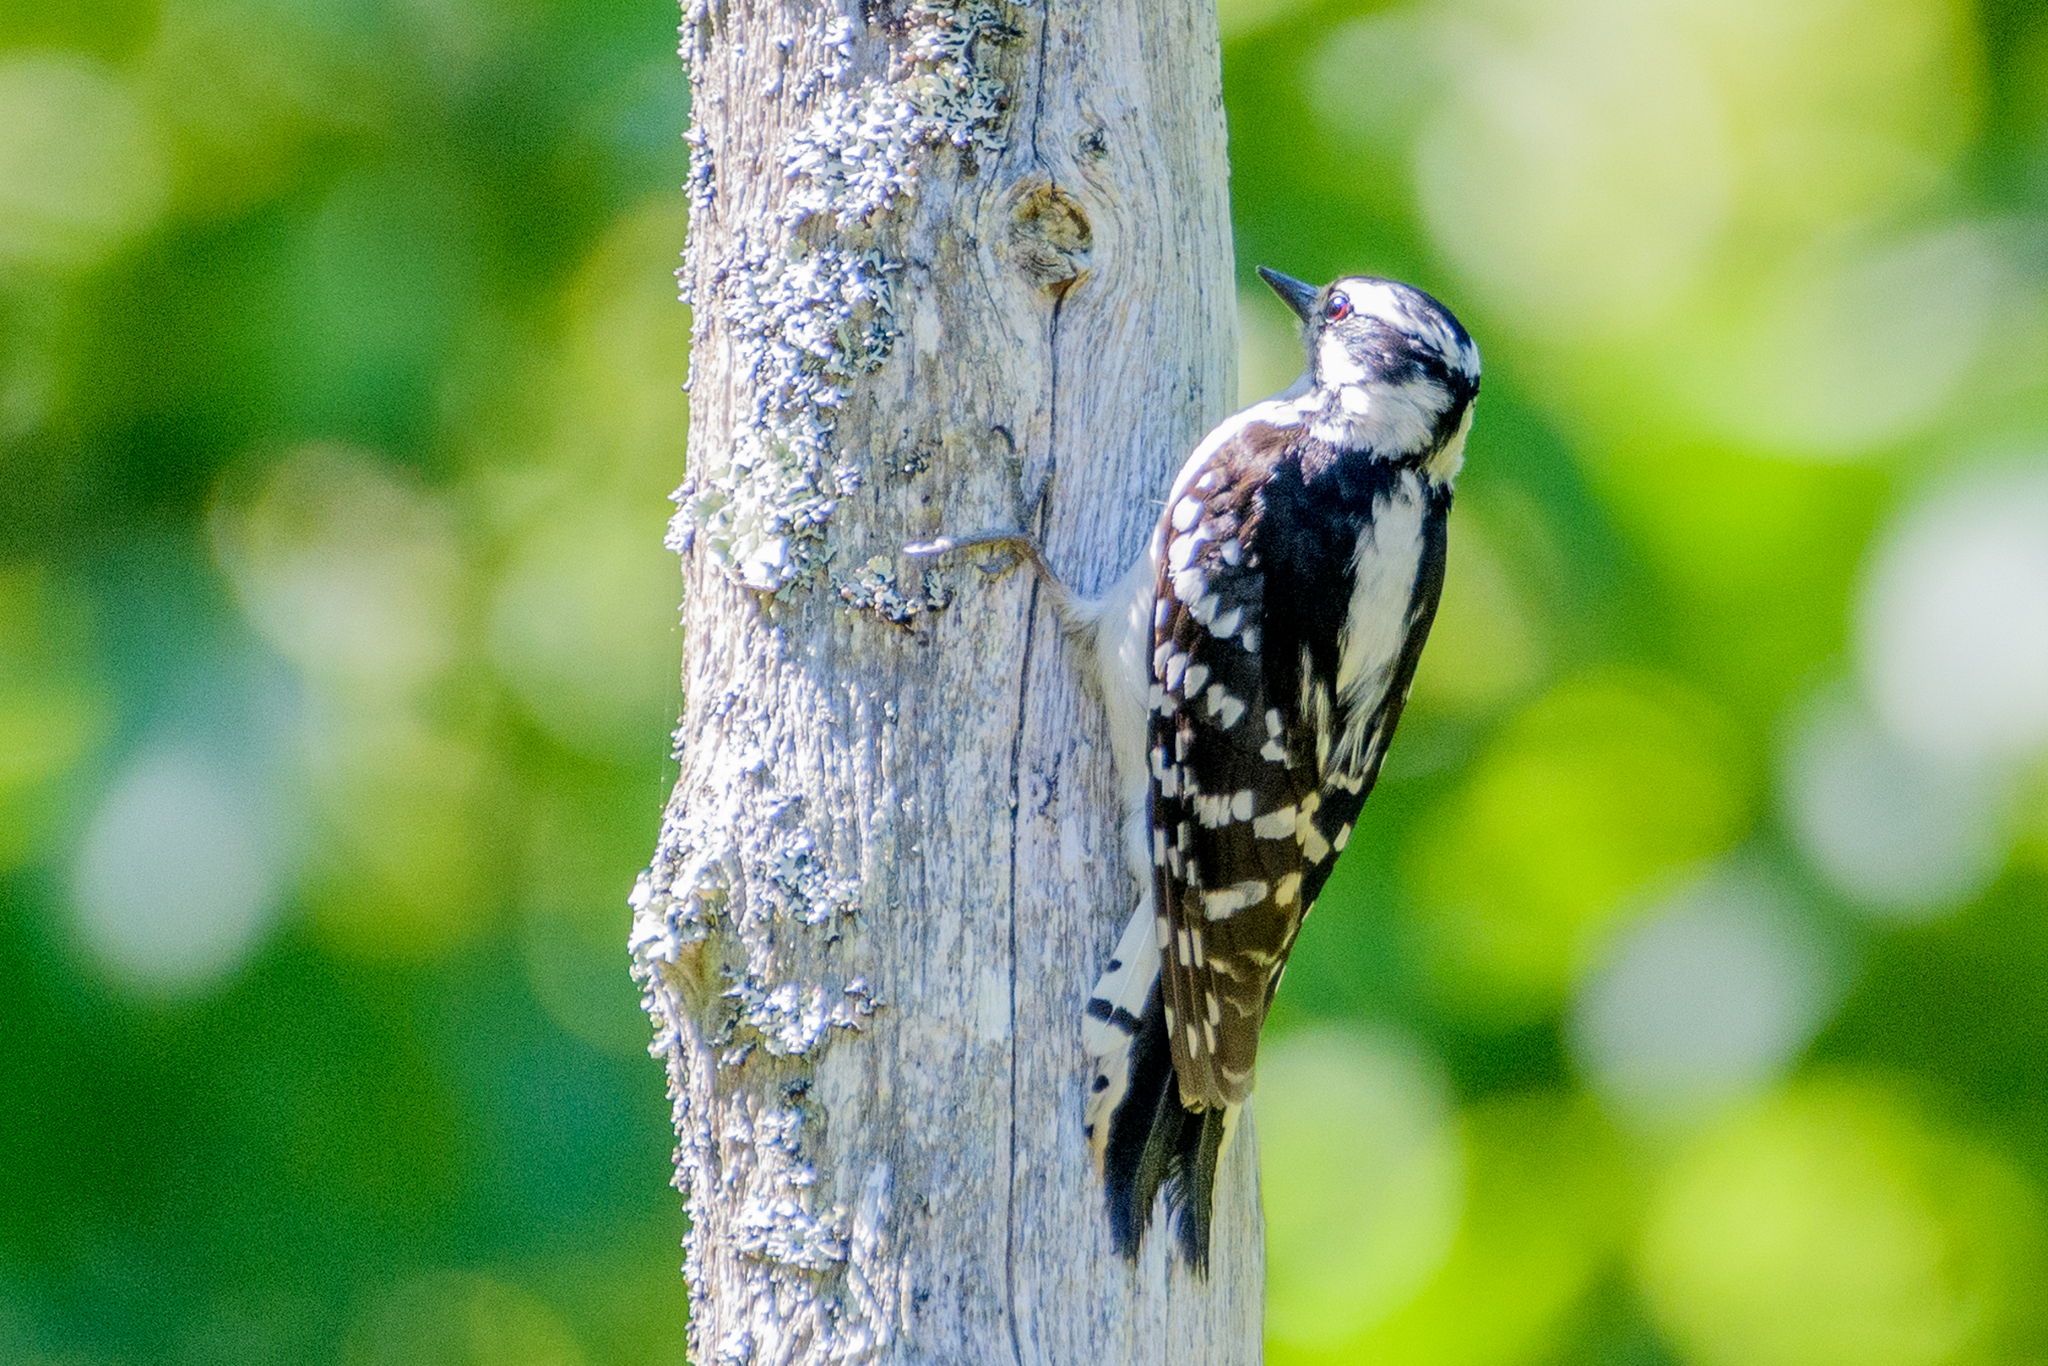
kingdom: Animalia
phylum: Chordata
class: Aves
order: Piciformes
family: Picidae
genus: Dryobates
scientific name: Dryobates pubescens
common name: Downy woodpecker
